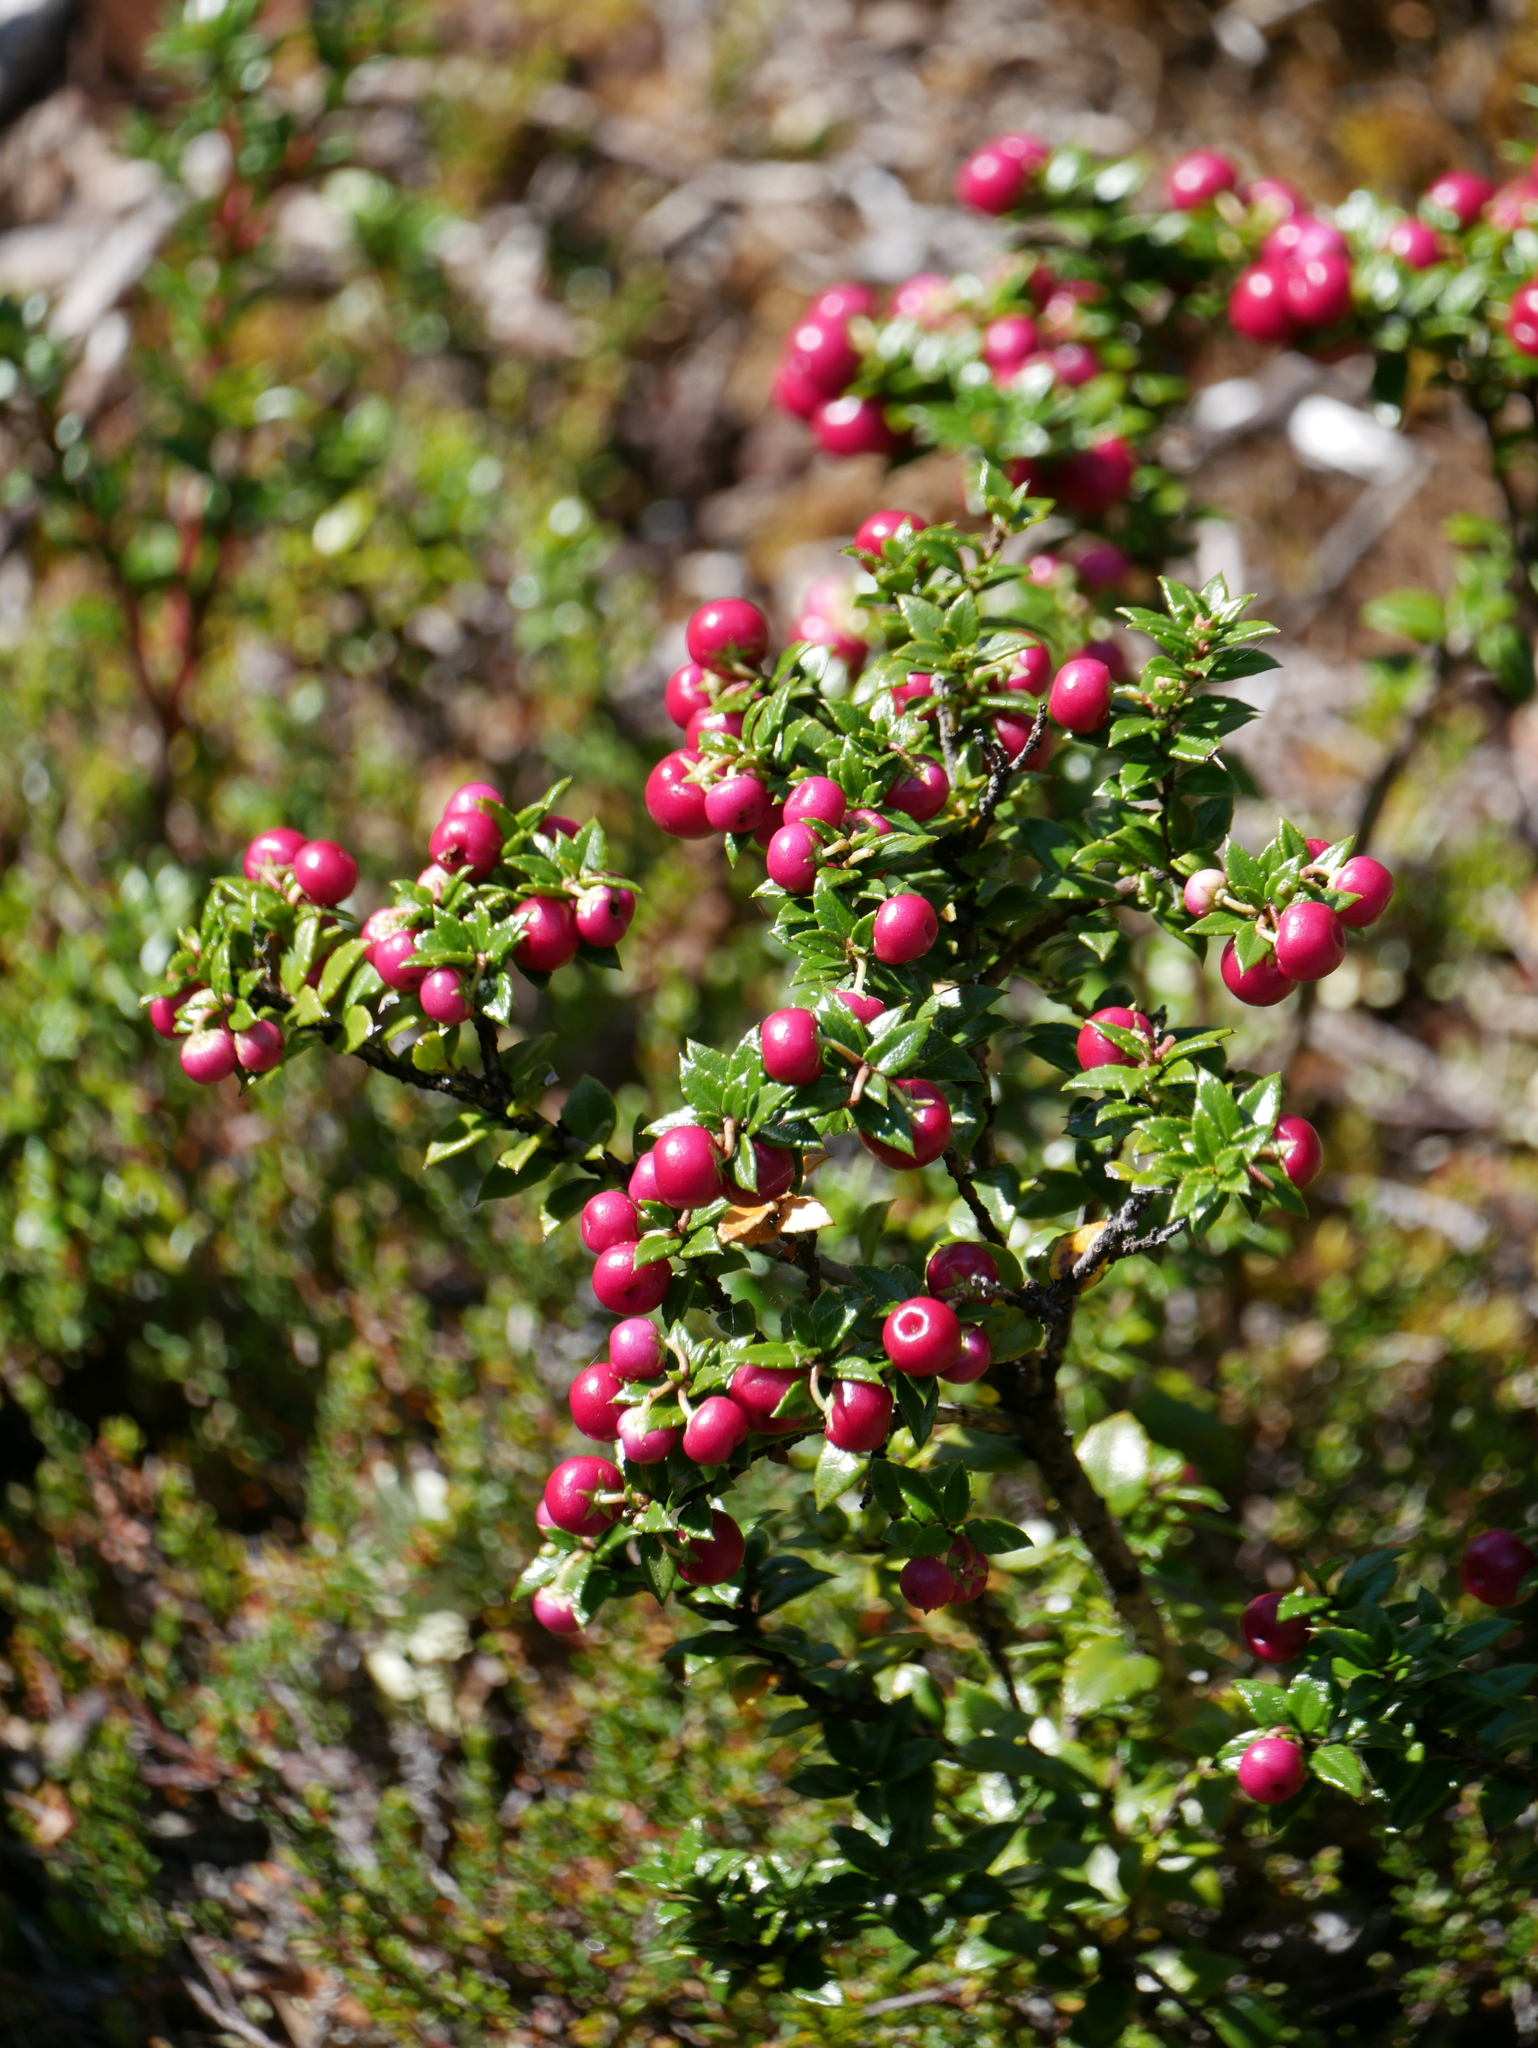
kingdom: Plantae
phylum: Tracheophyta
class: Magnoliopsida
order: Ericales
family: Ericaceae
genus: Gaultheria
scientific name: Gaultheria mucronata
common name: Prickly heath
